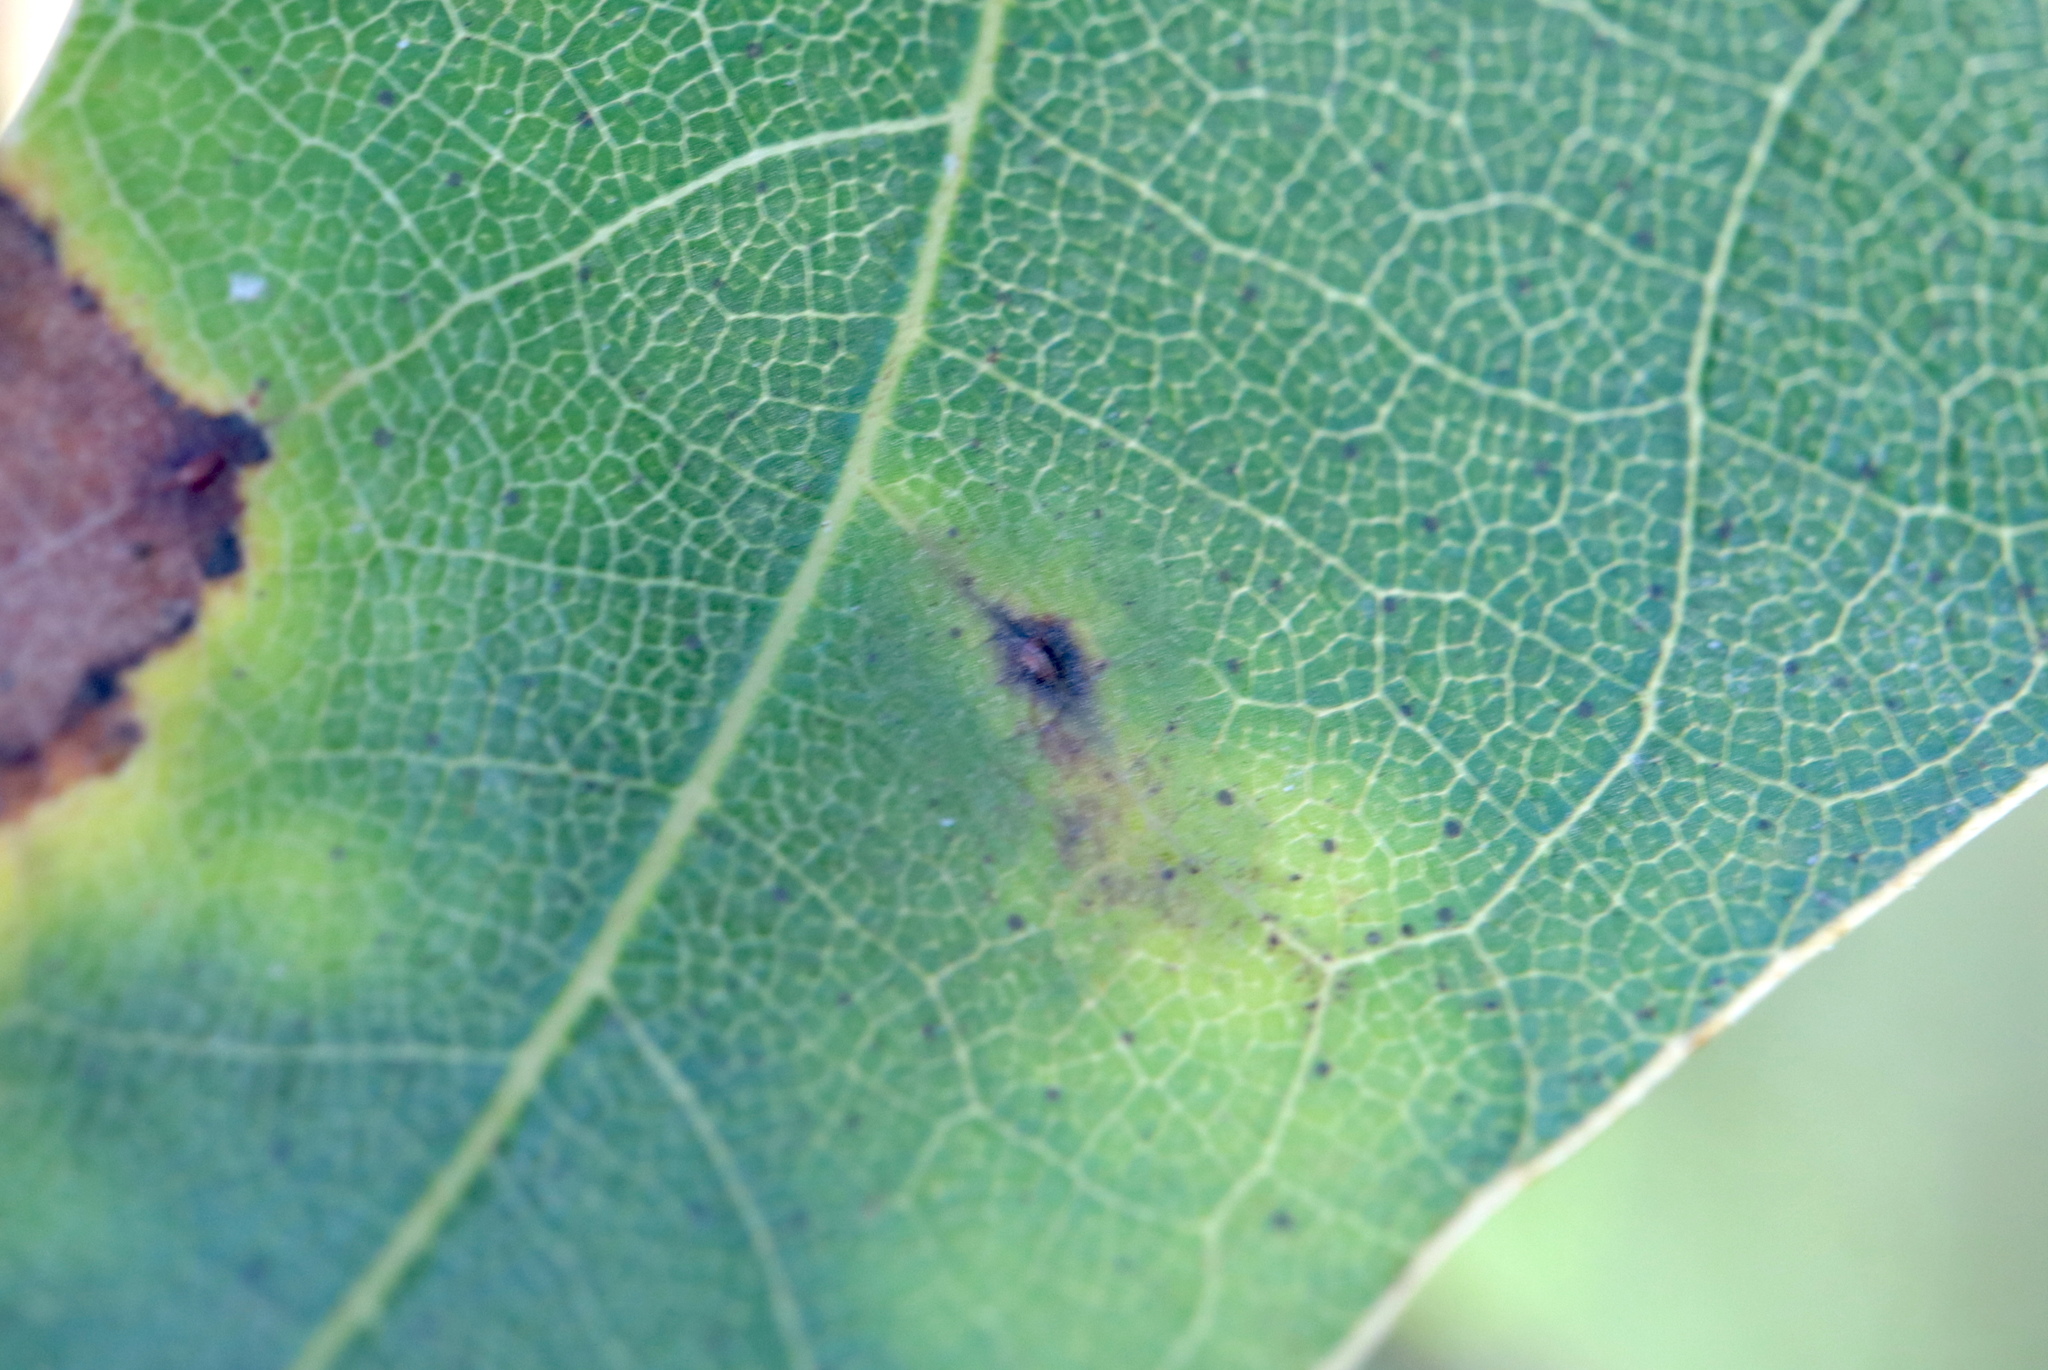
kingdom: Animalia
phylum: Arthropoda
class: Insecta
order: Diptera
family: Cecidomyiidae
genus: Polystepha
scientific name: Polystepha globosa
